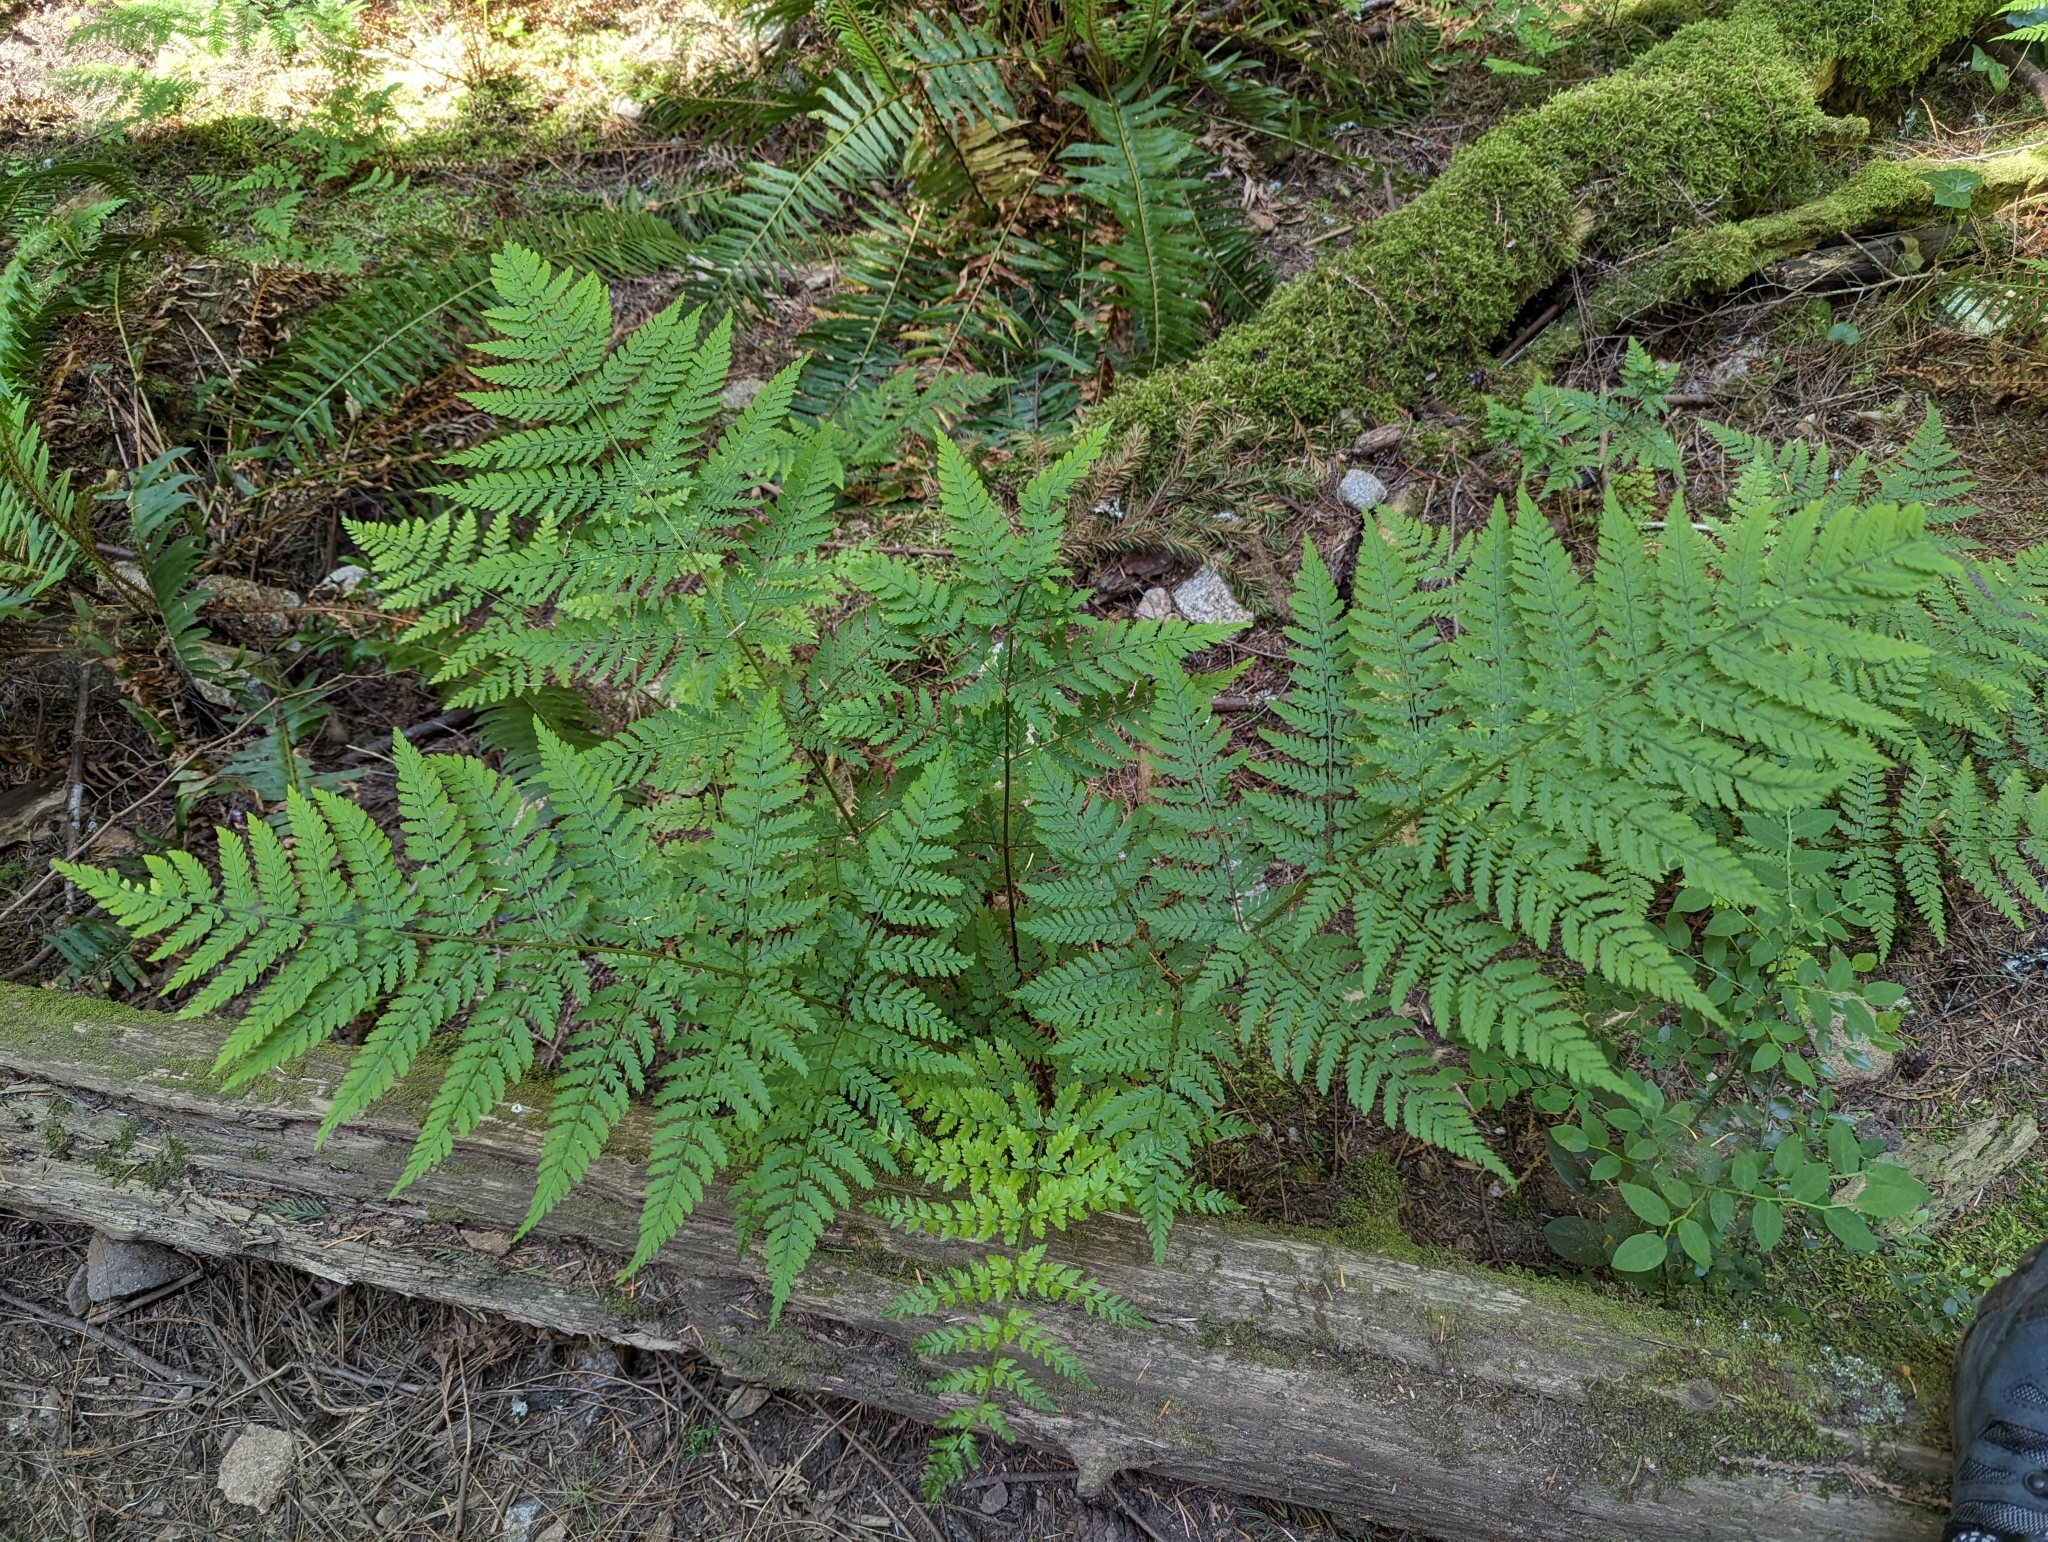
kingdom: Plantae
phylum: Tracheophyta
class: Polypodiopsida
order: Polypodiales
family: Dryopteridaceae
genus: Dryopteris
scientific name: Dryopteris expansa
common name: Northern buckler fern
